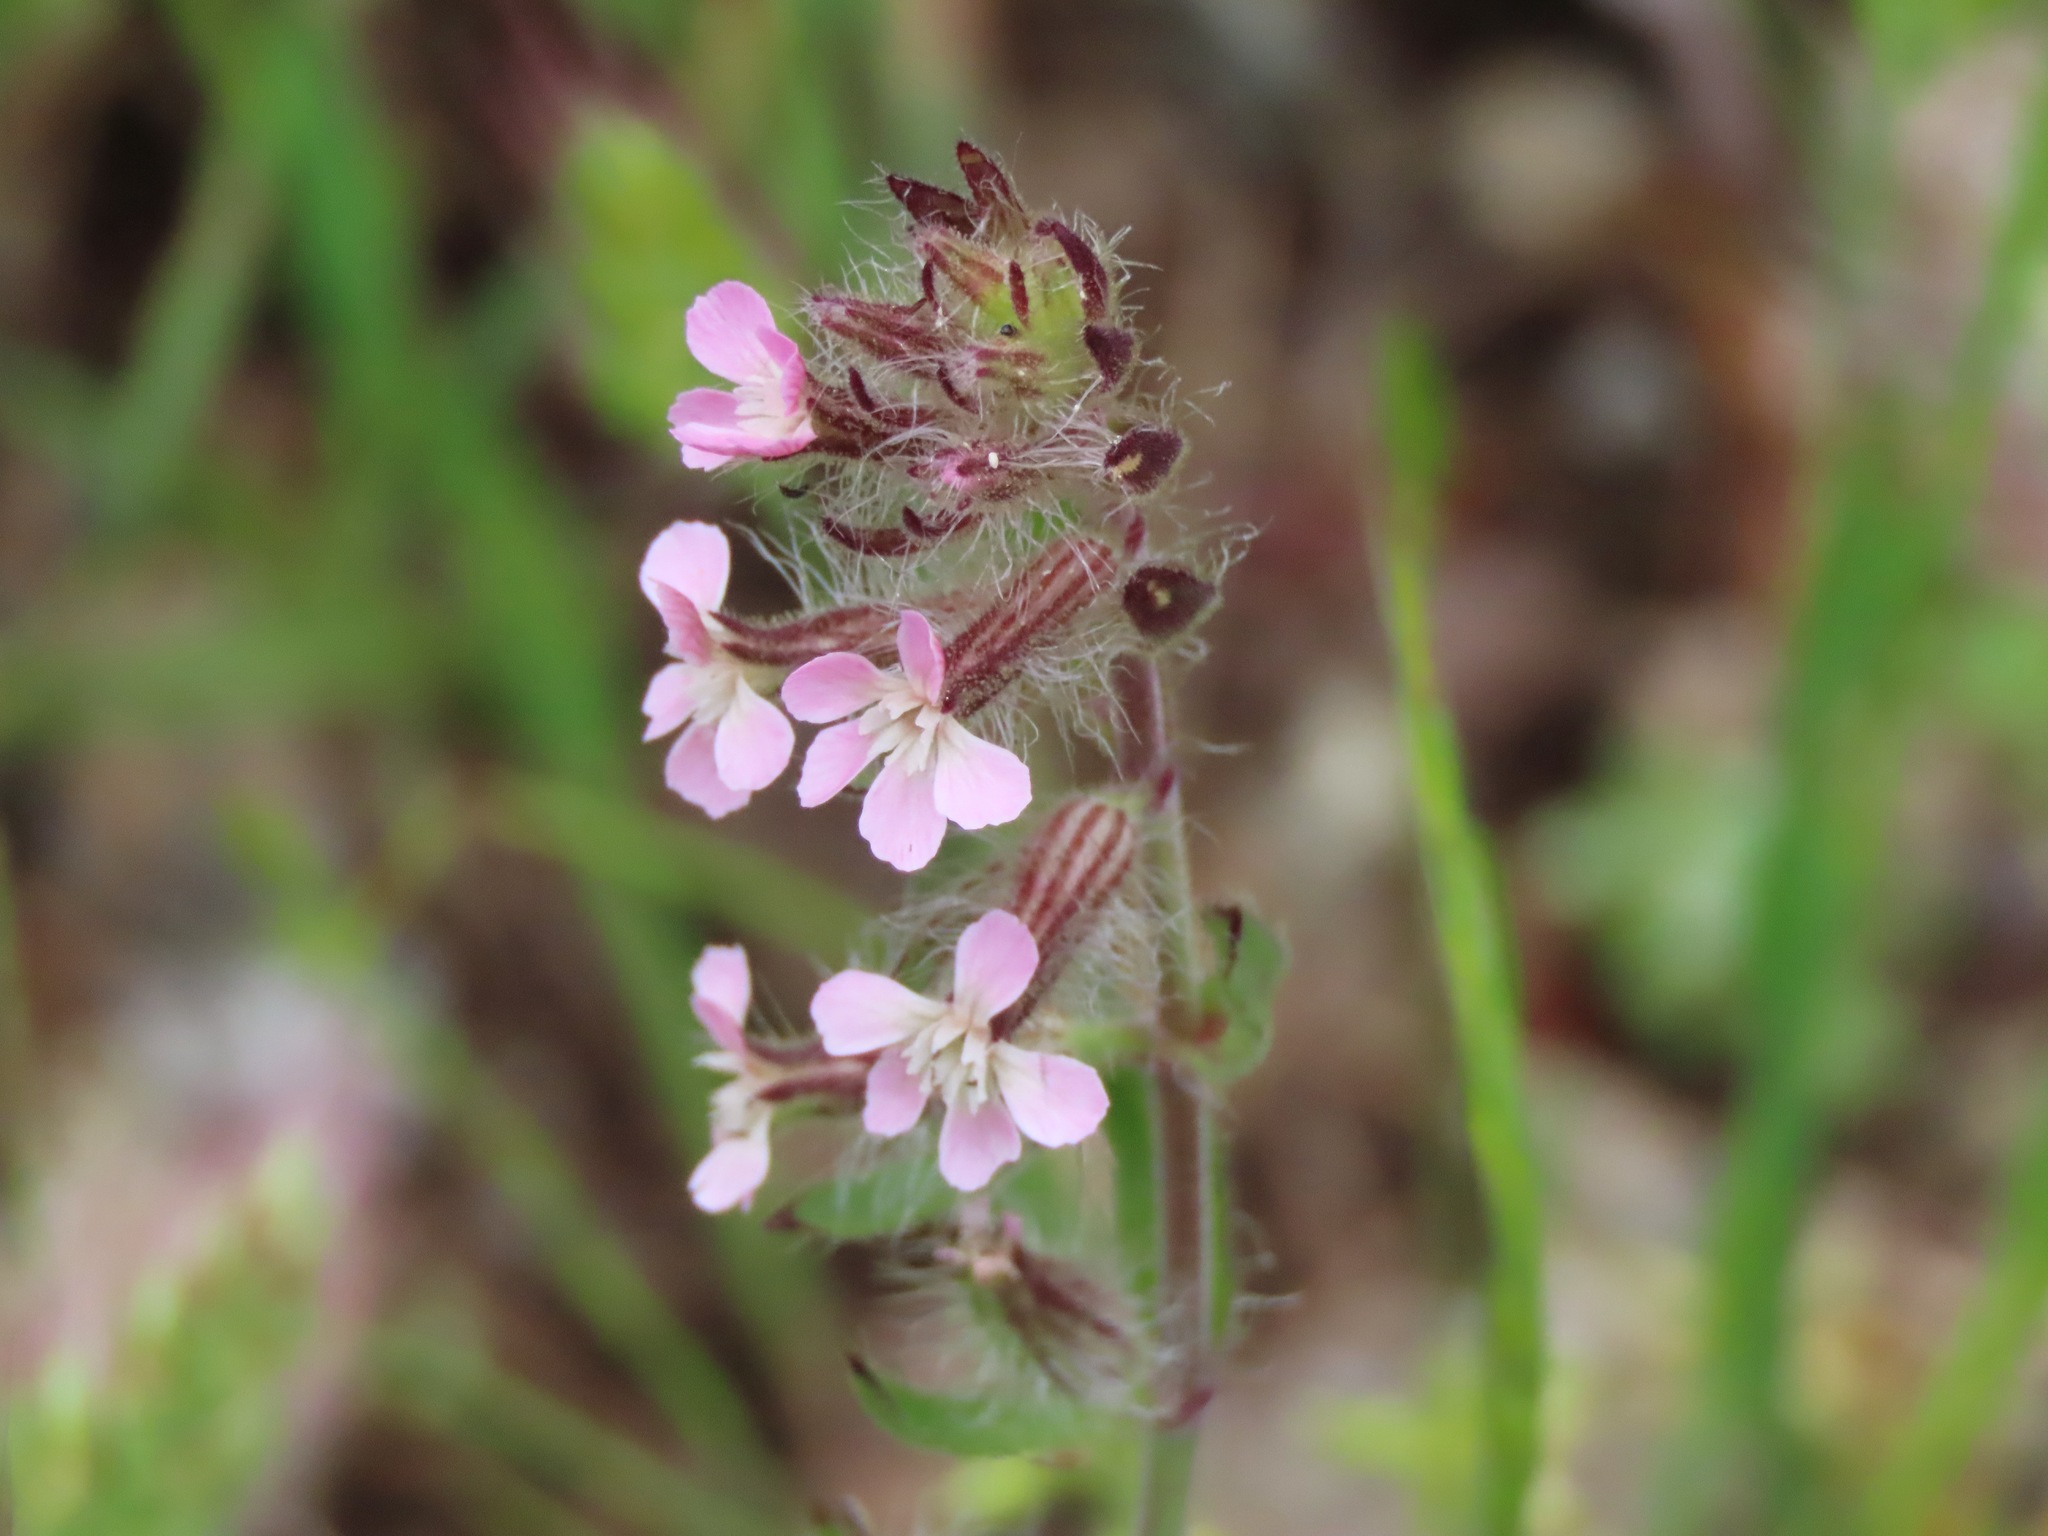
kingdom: Plantae
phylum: Tracheophyta
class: Magnoliopsida
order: Caryophyllales
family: Caryophyllaceae
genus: Silene
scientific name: Silene gallica
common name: Small-flowered catchfly
